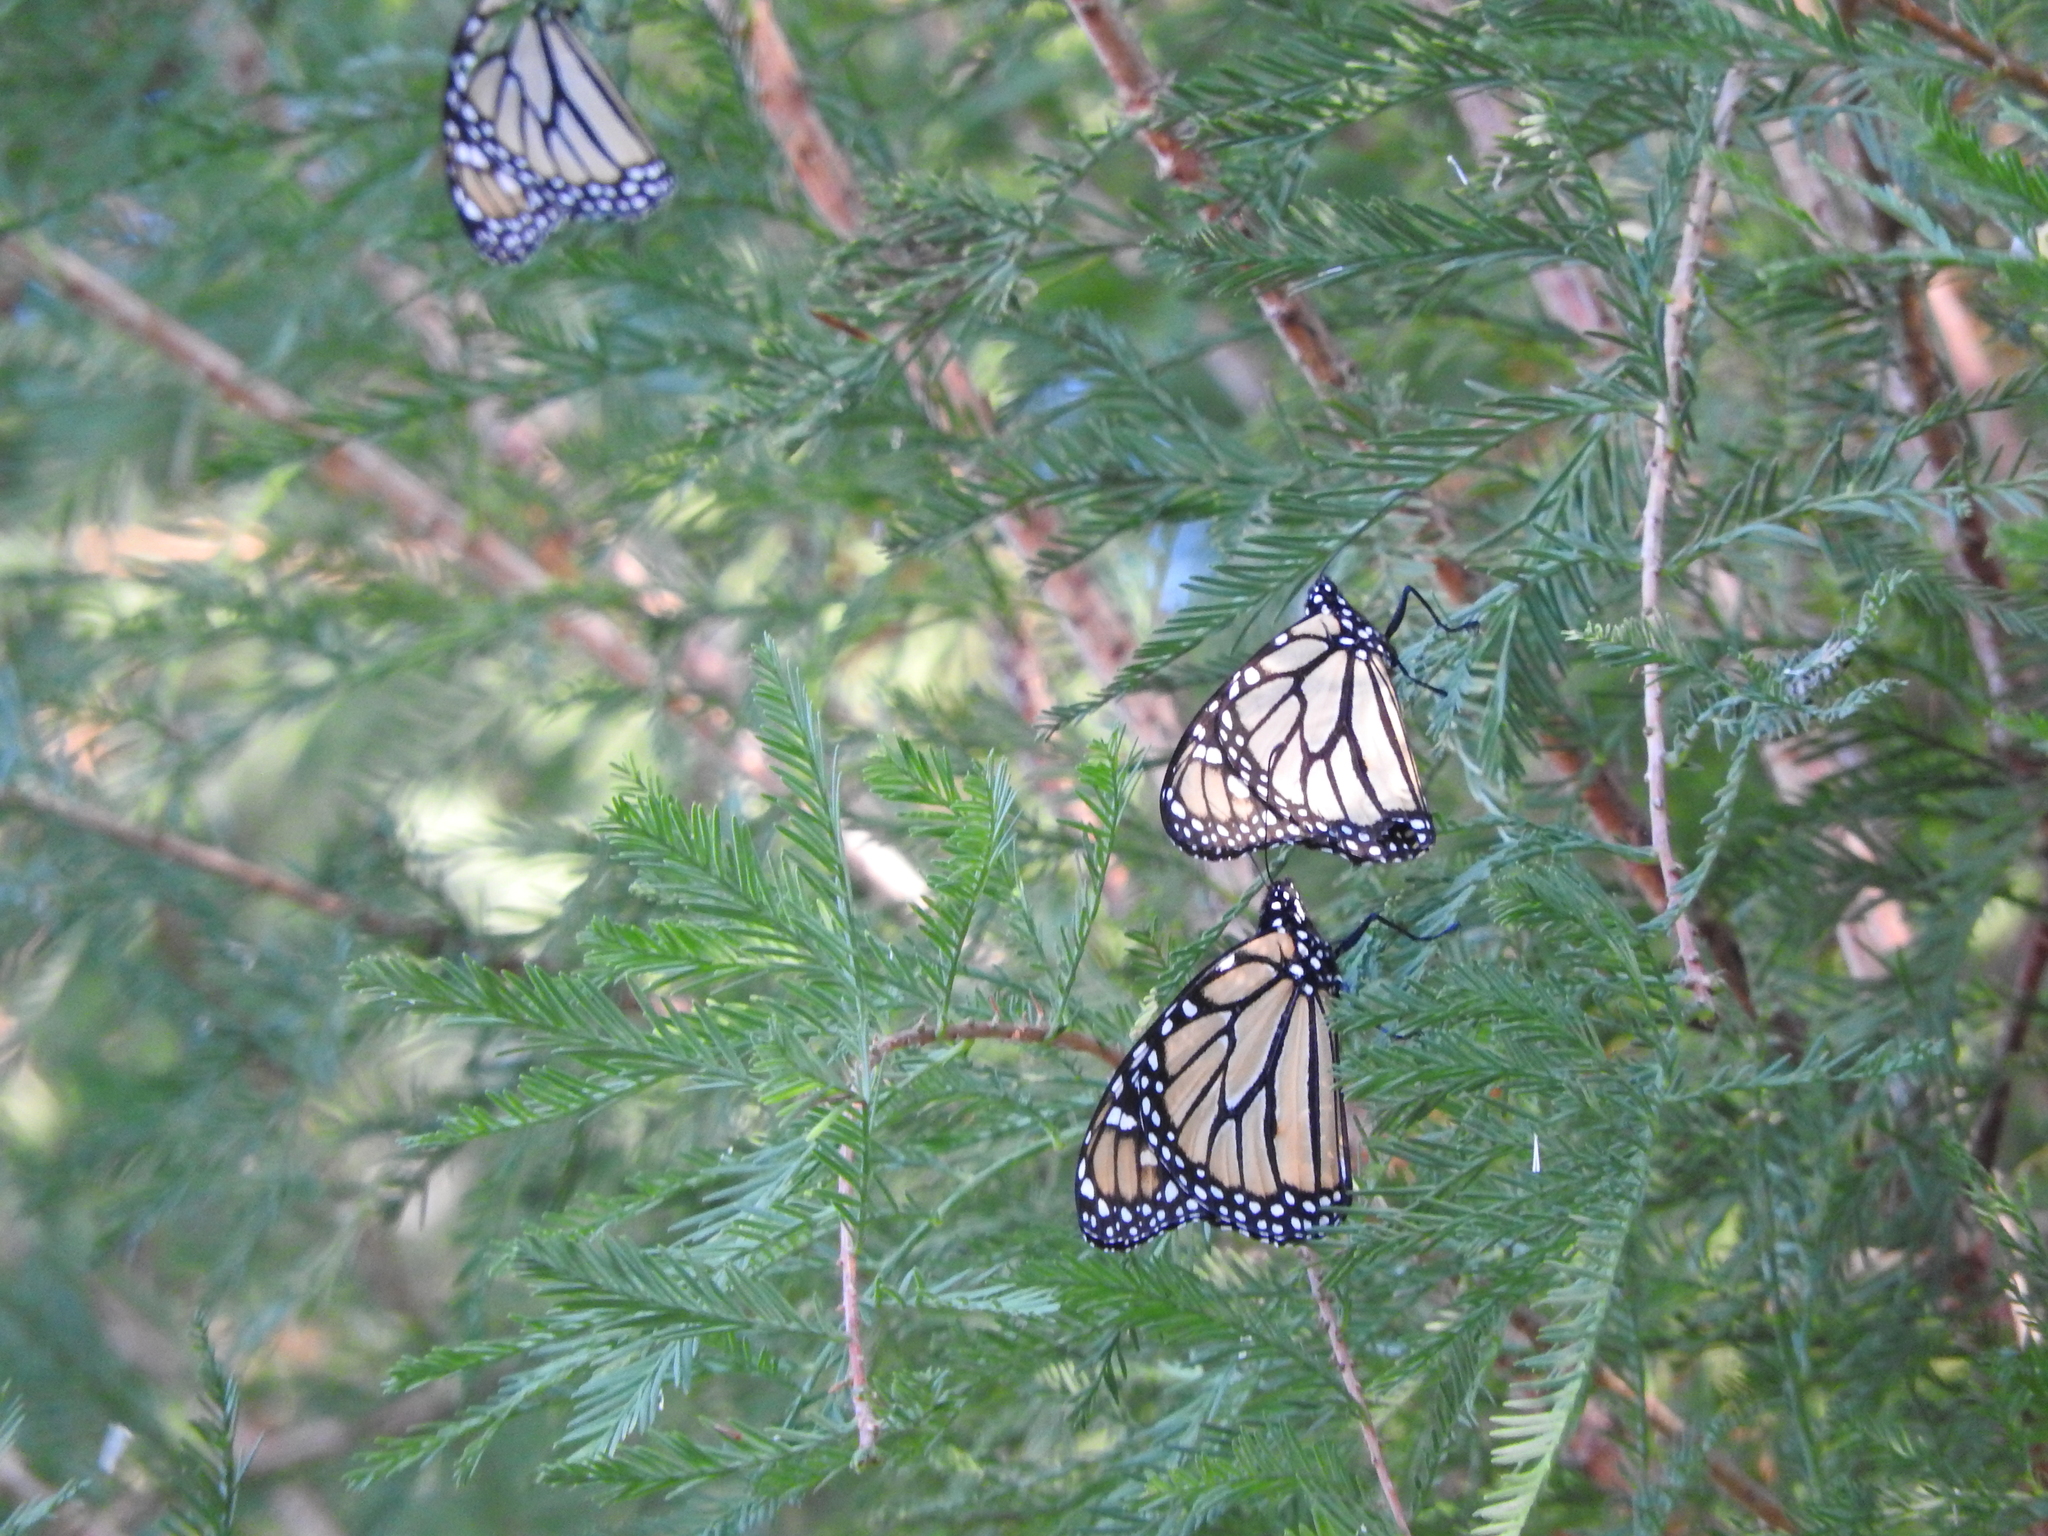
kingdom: Animalia
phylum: Arthropoda
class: Insecta
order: Lepidoptera
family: Nymphalidae
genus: Danaus
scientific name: Danaus plexippus
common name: Monarch
